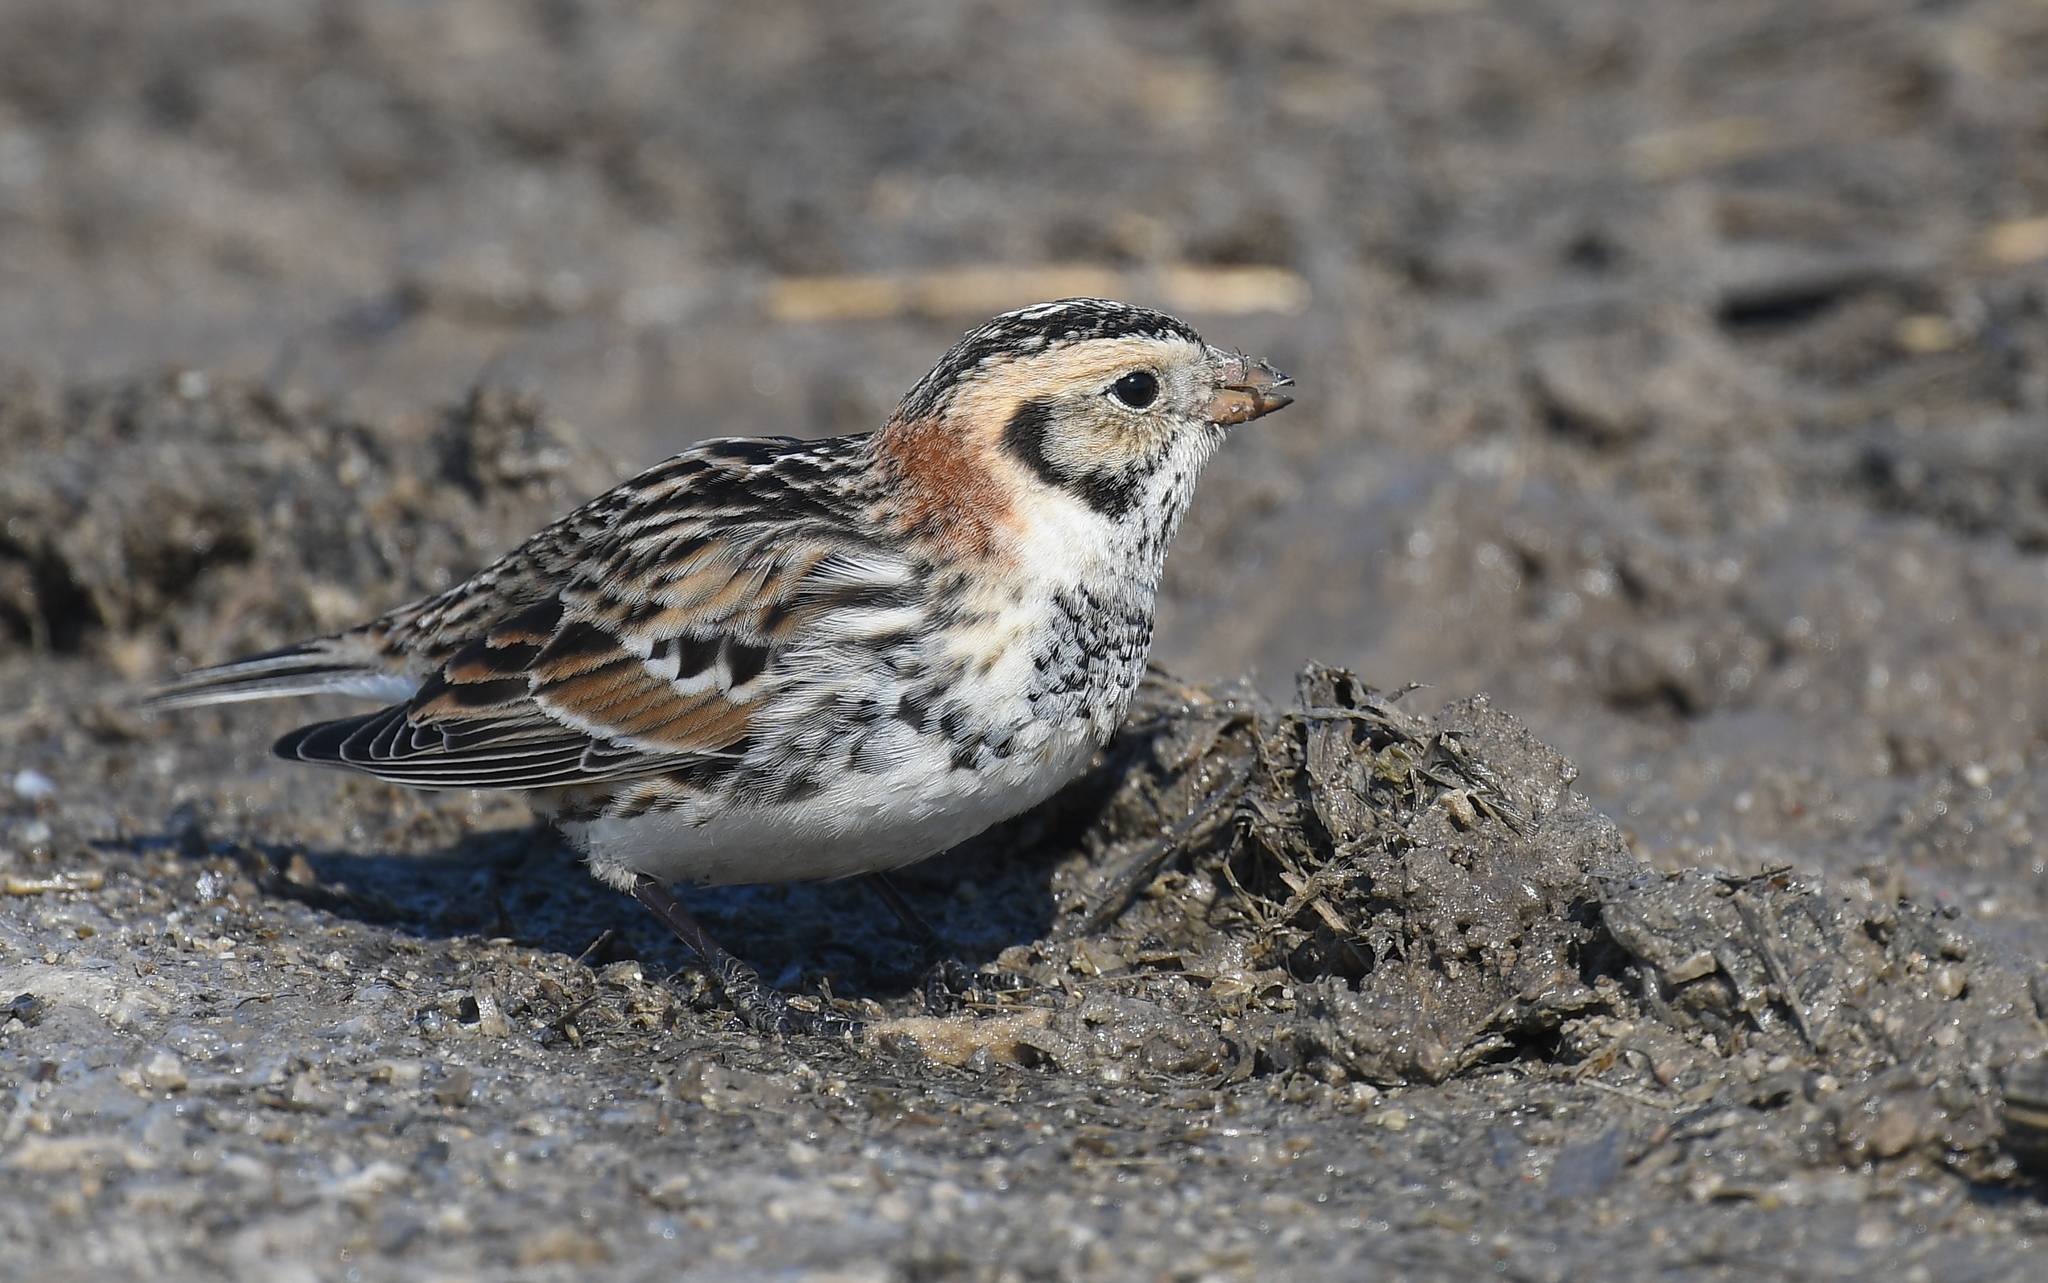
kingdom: Animalia
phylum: Chordata
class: Aves
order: Passeriformes
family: Calcariidae
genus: Calcarius
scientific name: Calcarius lapponicus
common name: Lapland longspur
